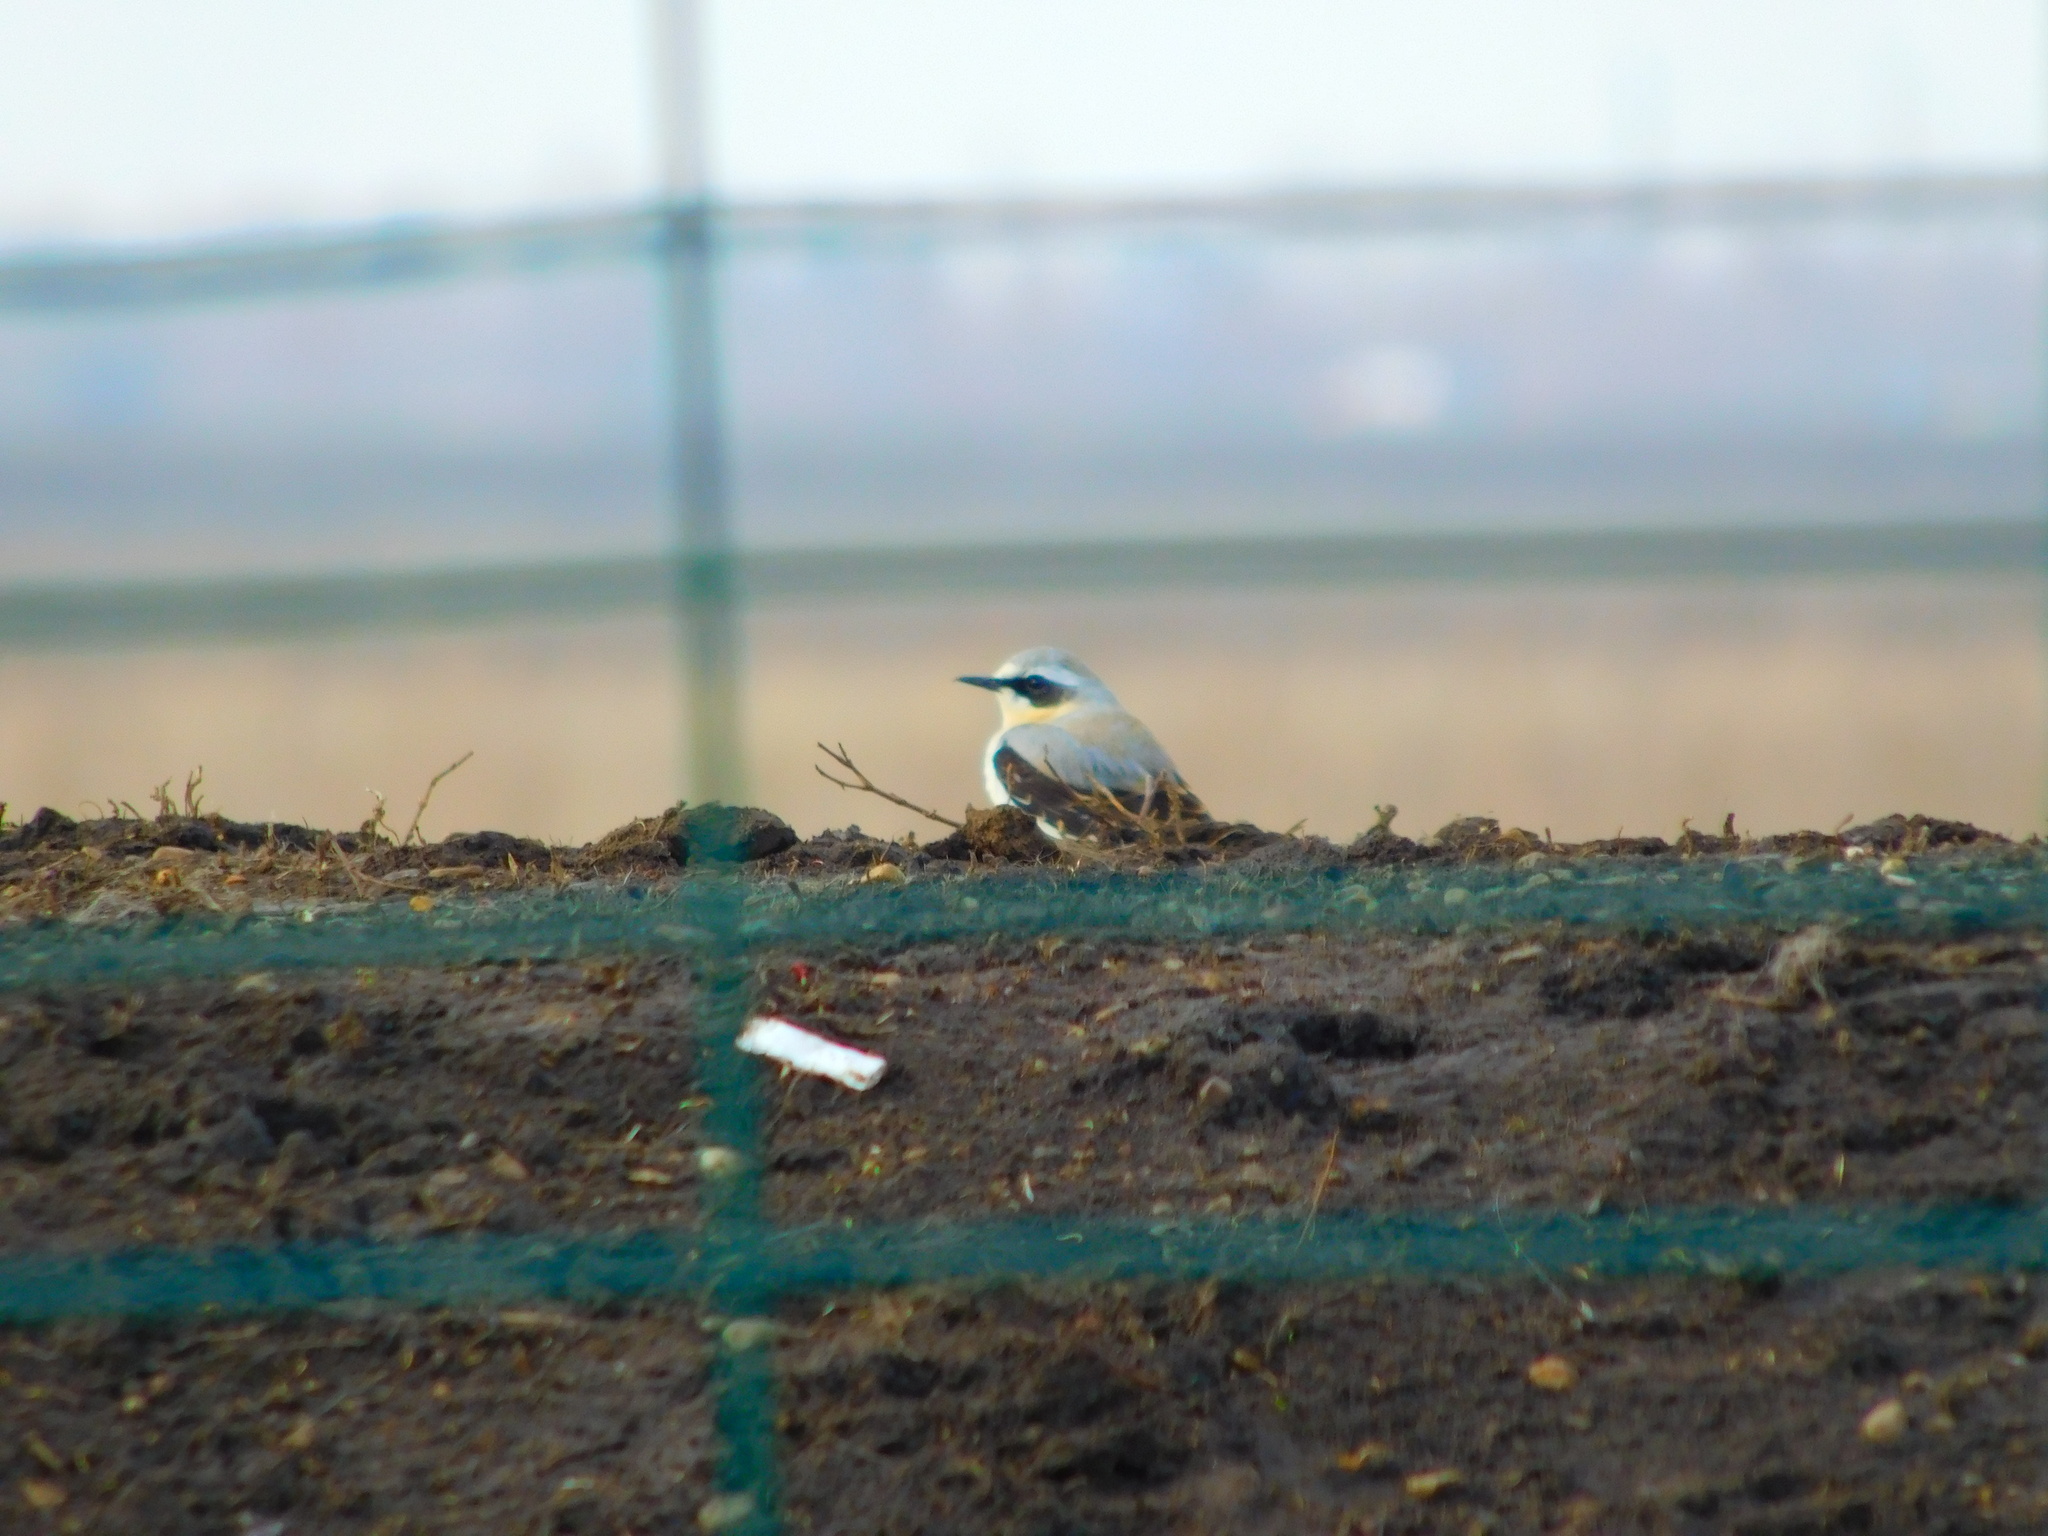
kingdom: Animalia
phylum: Chordata
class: Aves
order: Passeriformes
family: Muscicapidae
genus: Oenanthe
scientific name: Oenanthe oenanthe
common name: Northern wheatear
